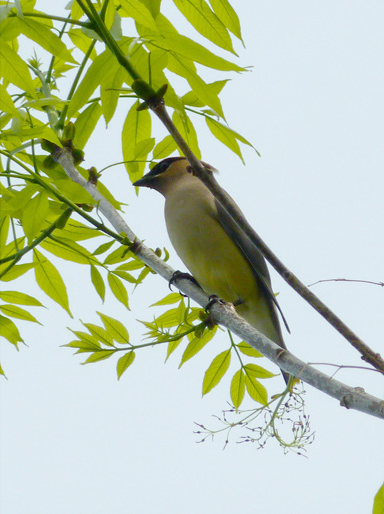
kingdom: Animalia
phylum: Chordata
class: Aves
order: Passeriformes
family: Bombycillidae
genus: Bombycilla
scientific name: Bombycilla cedrorum
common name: Cedar waxwing
